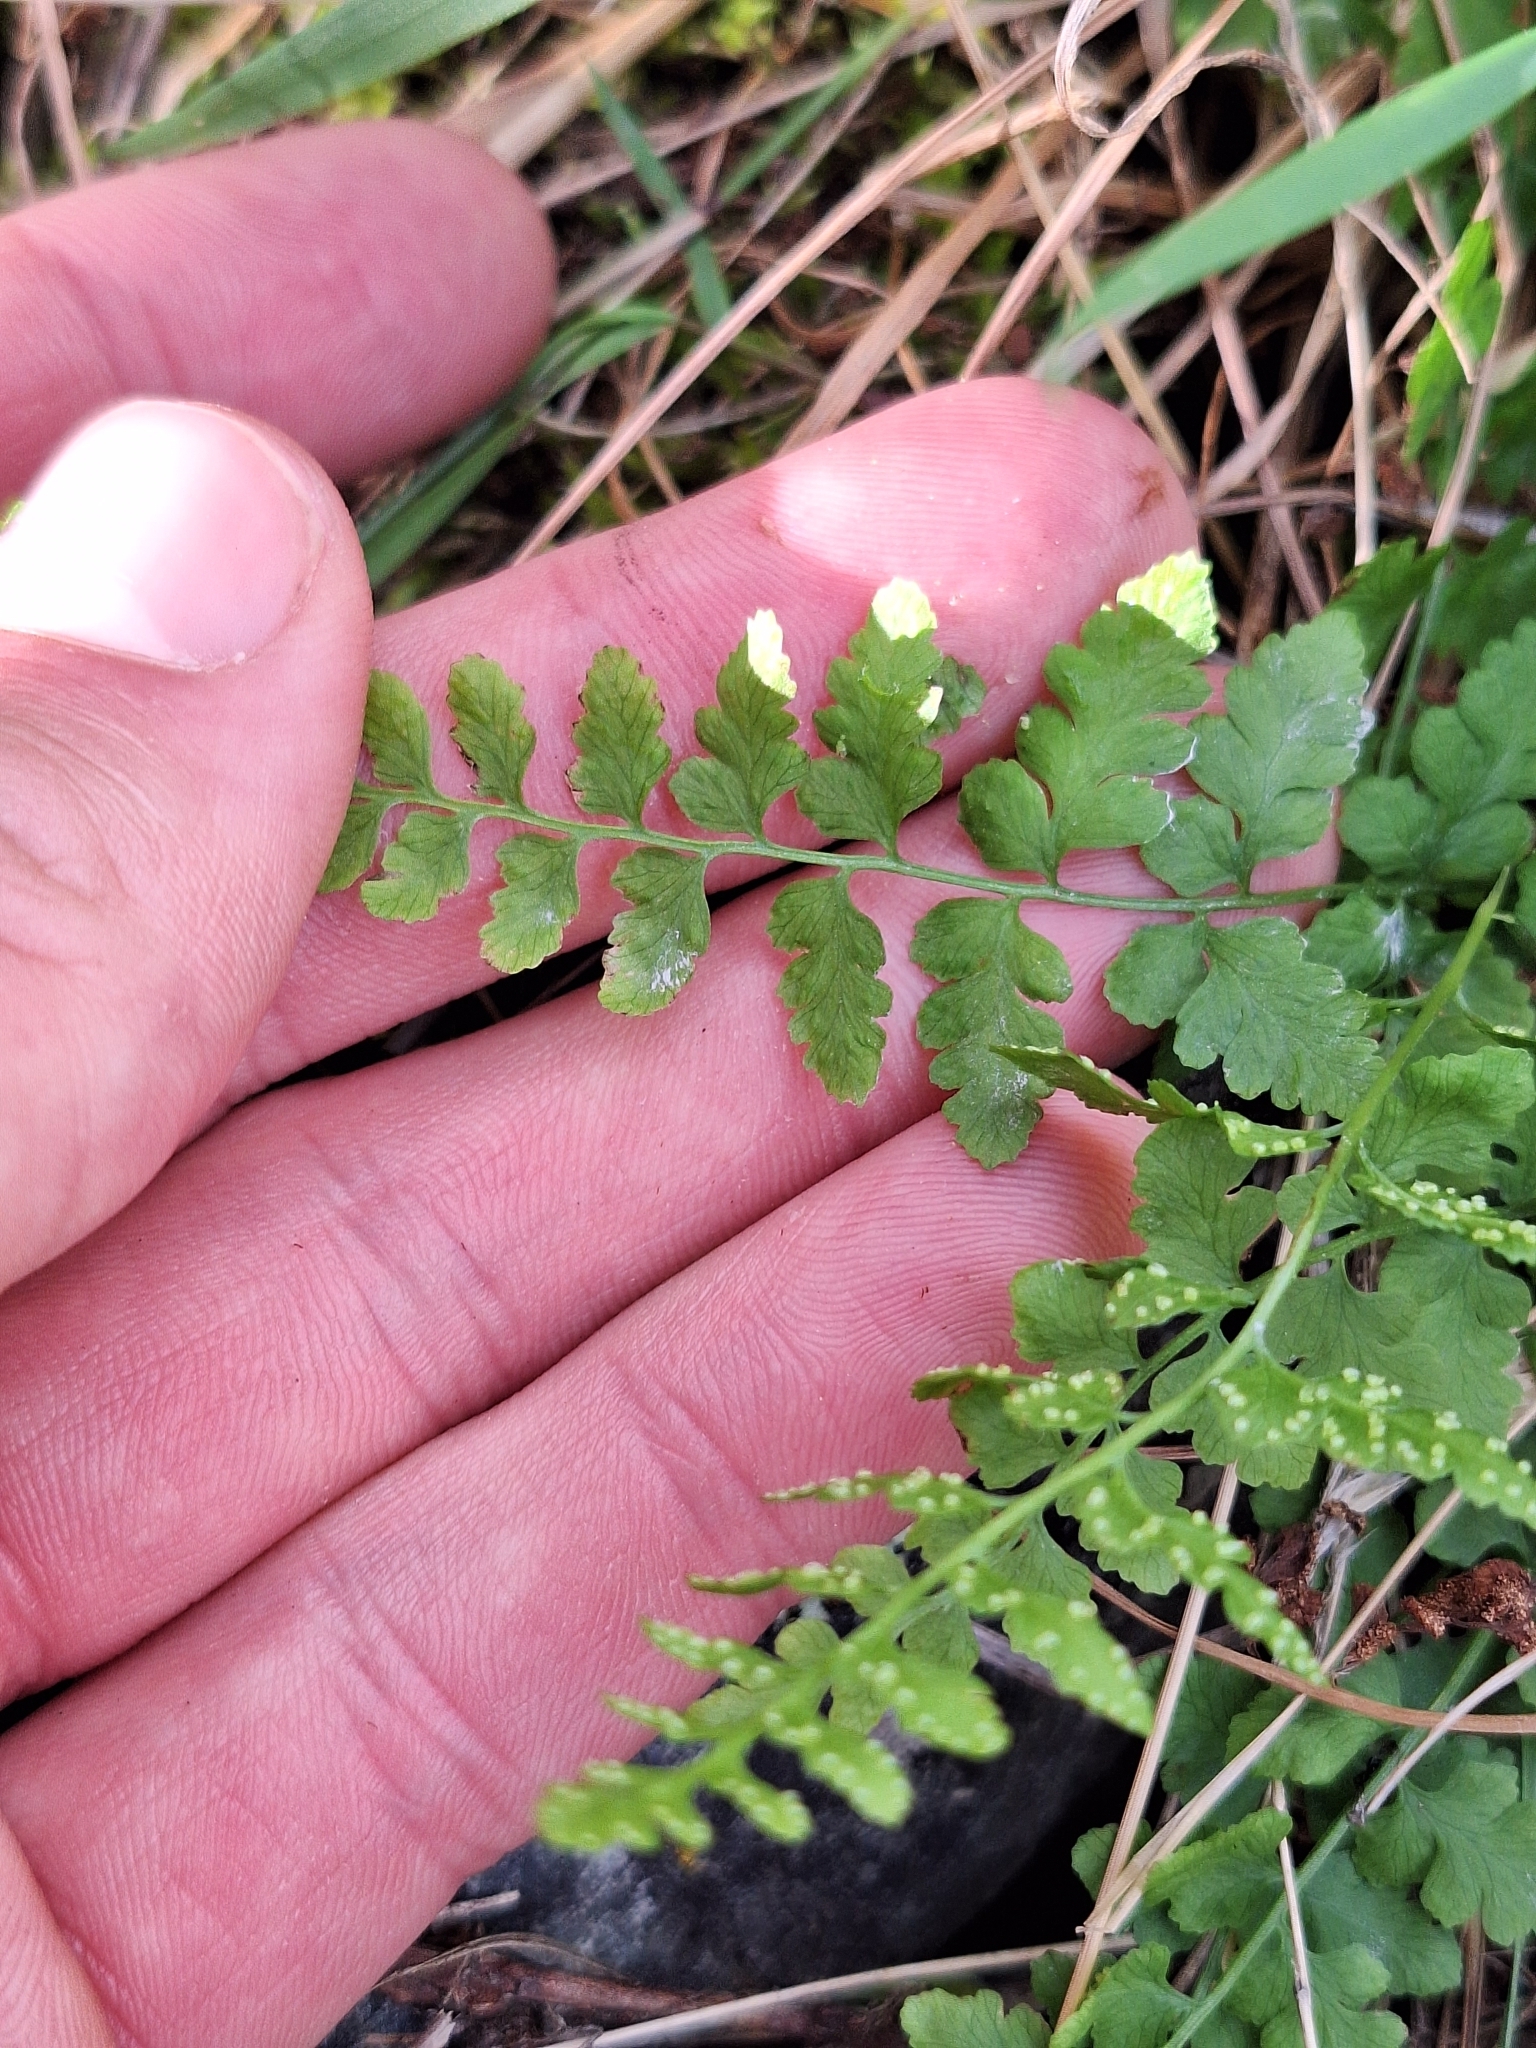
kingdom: Plantae
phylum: Tracheophyta
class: Polypodiopsida
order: Polypodiales
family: Cystopteridaceae
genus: Cystopteris
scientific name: Cystopteris tasmanica
